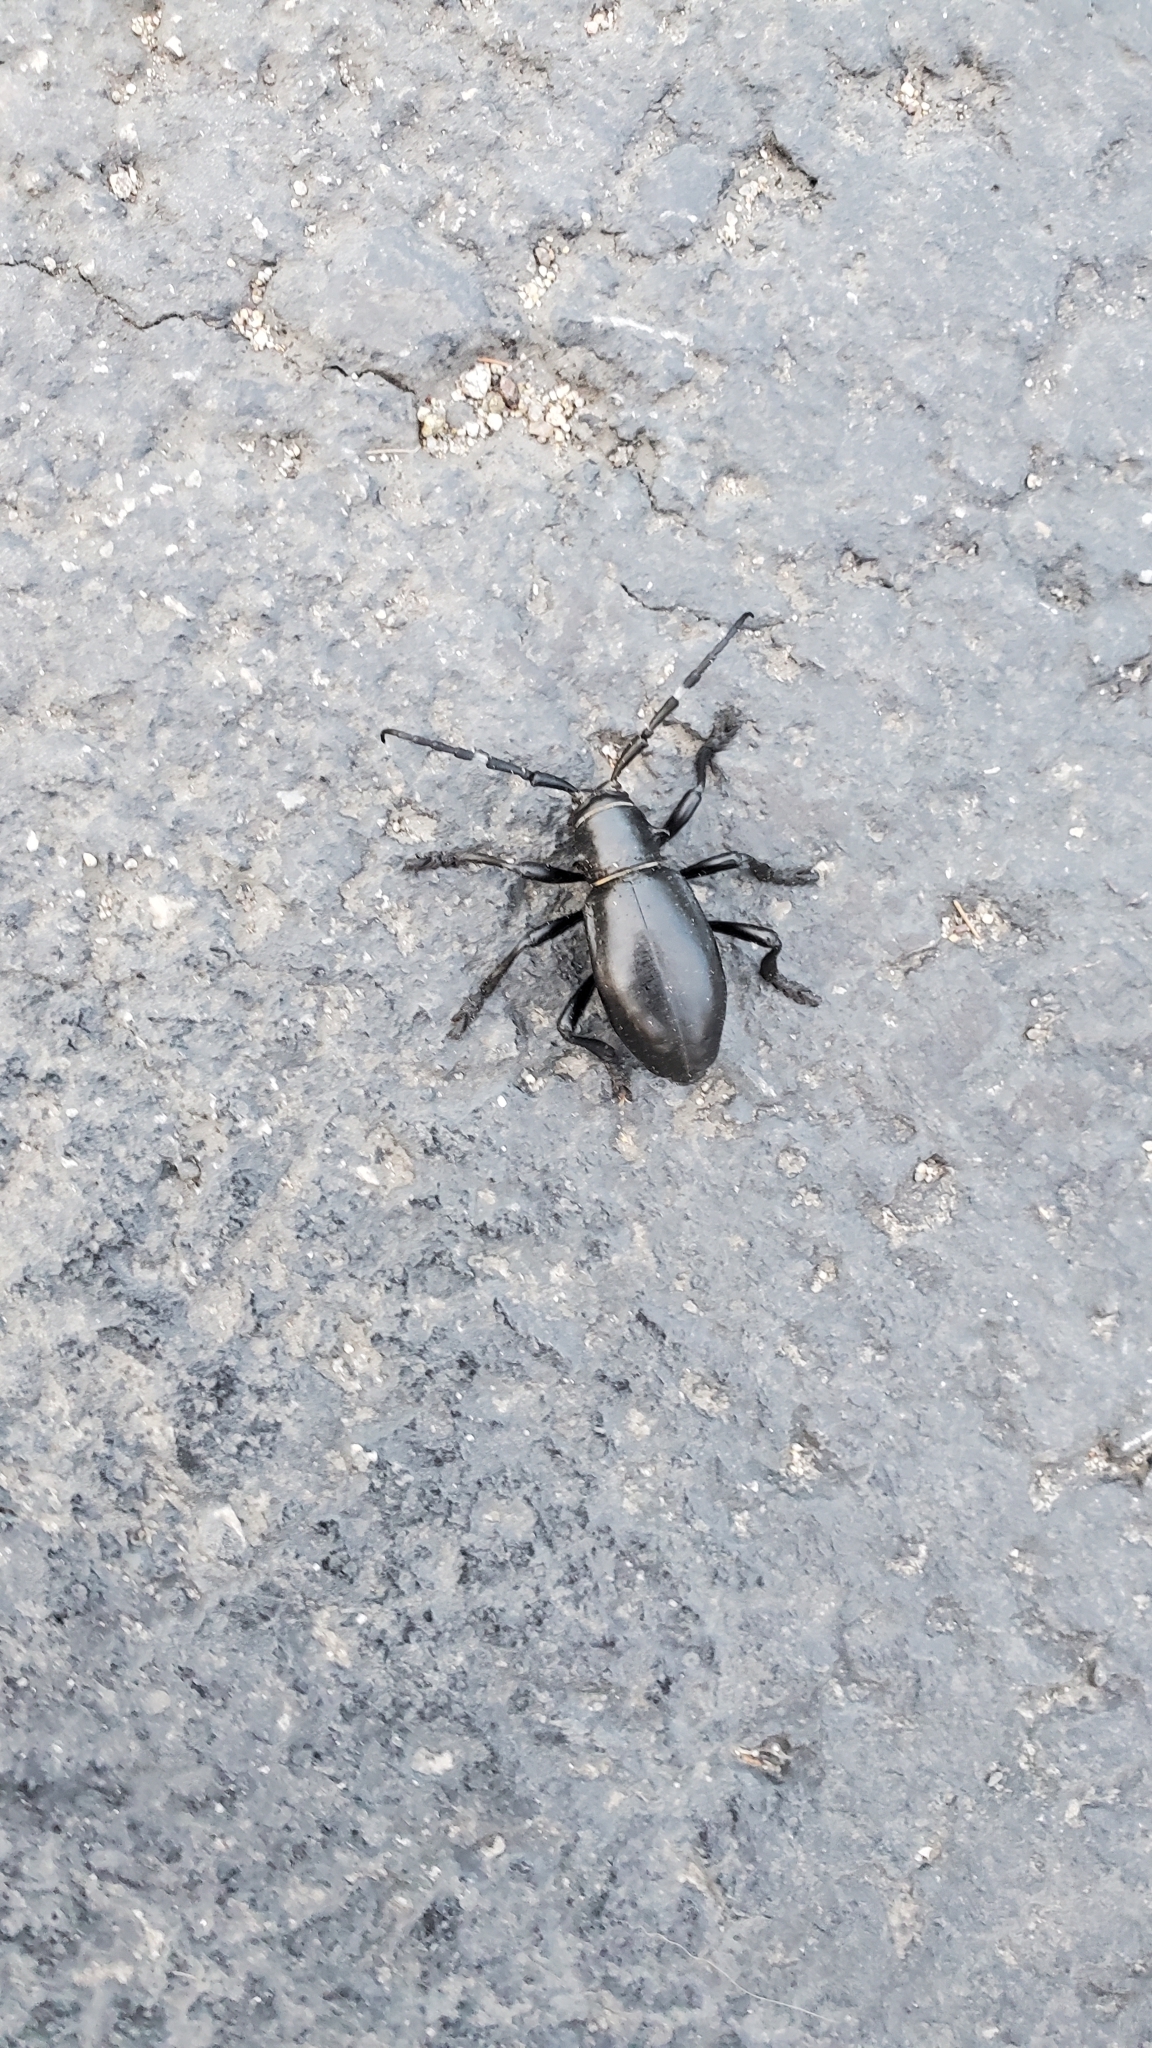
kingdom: Animalia
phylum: Arthropoda
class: Insecta
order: Coleoptera
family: Cerambycidae
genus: Moneilema
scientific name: Moneilema gigas
